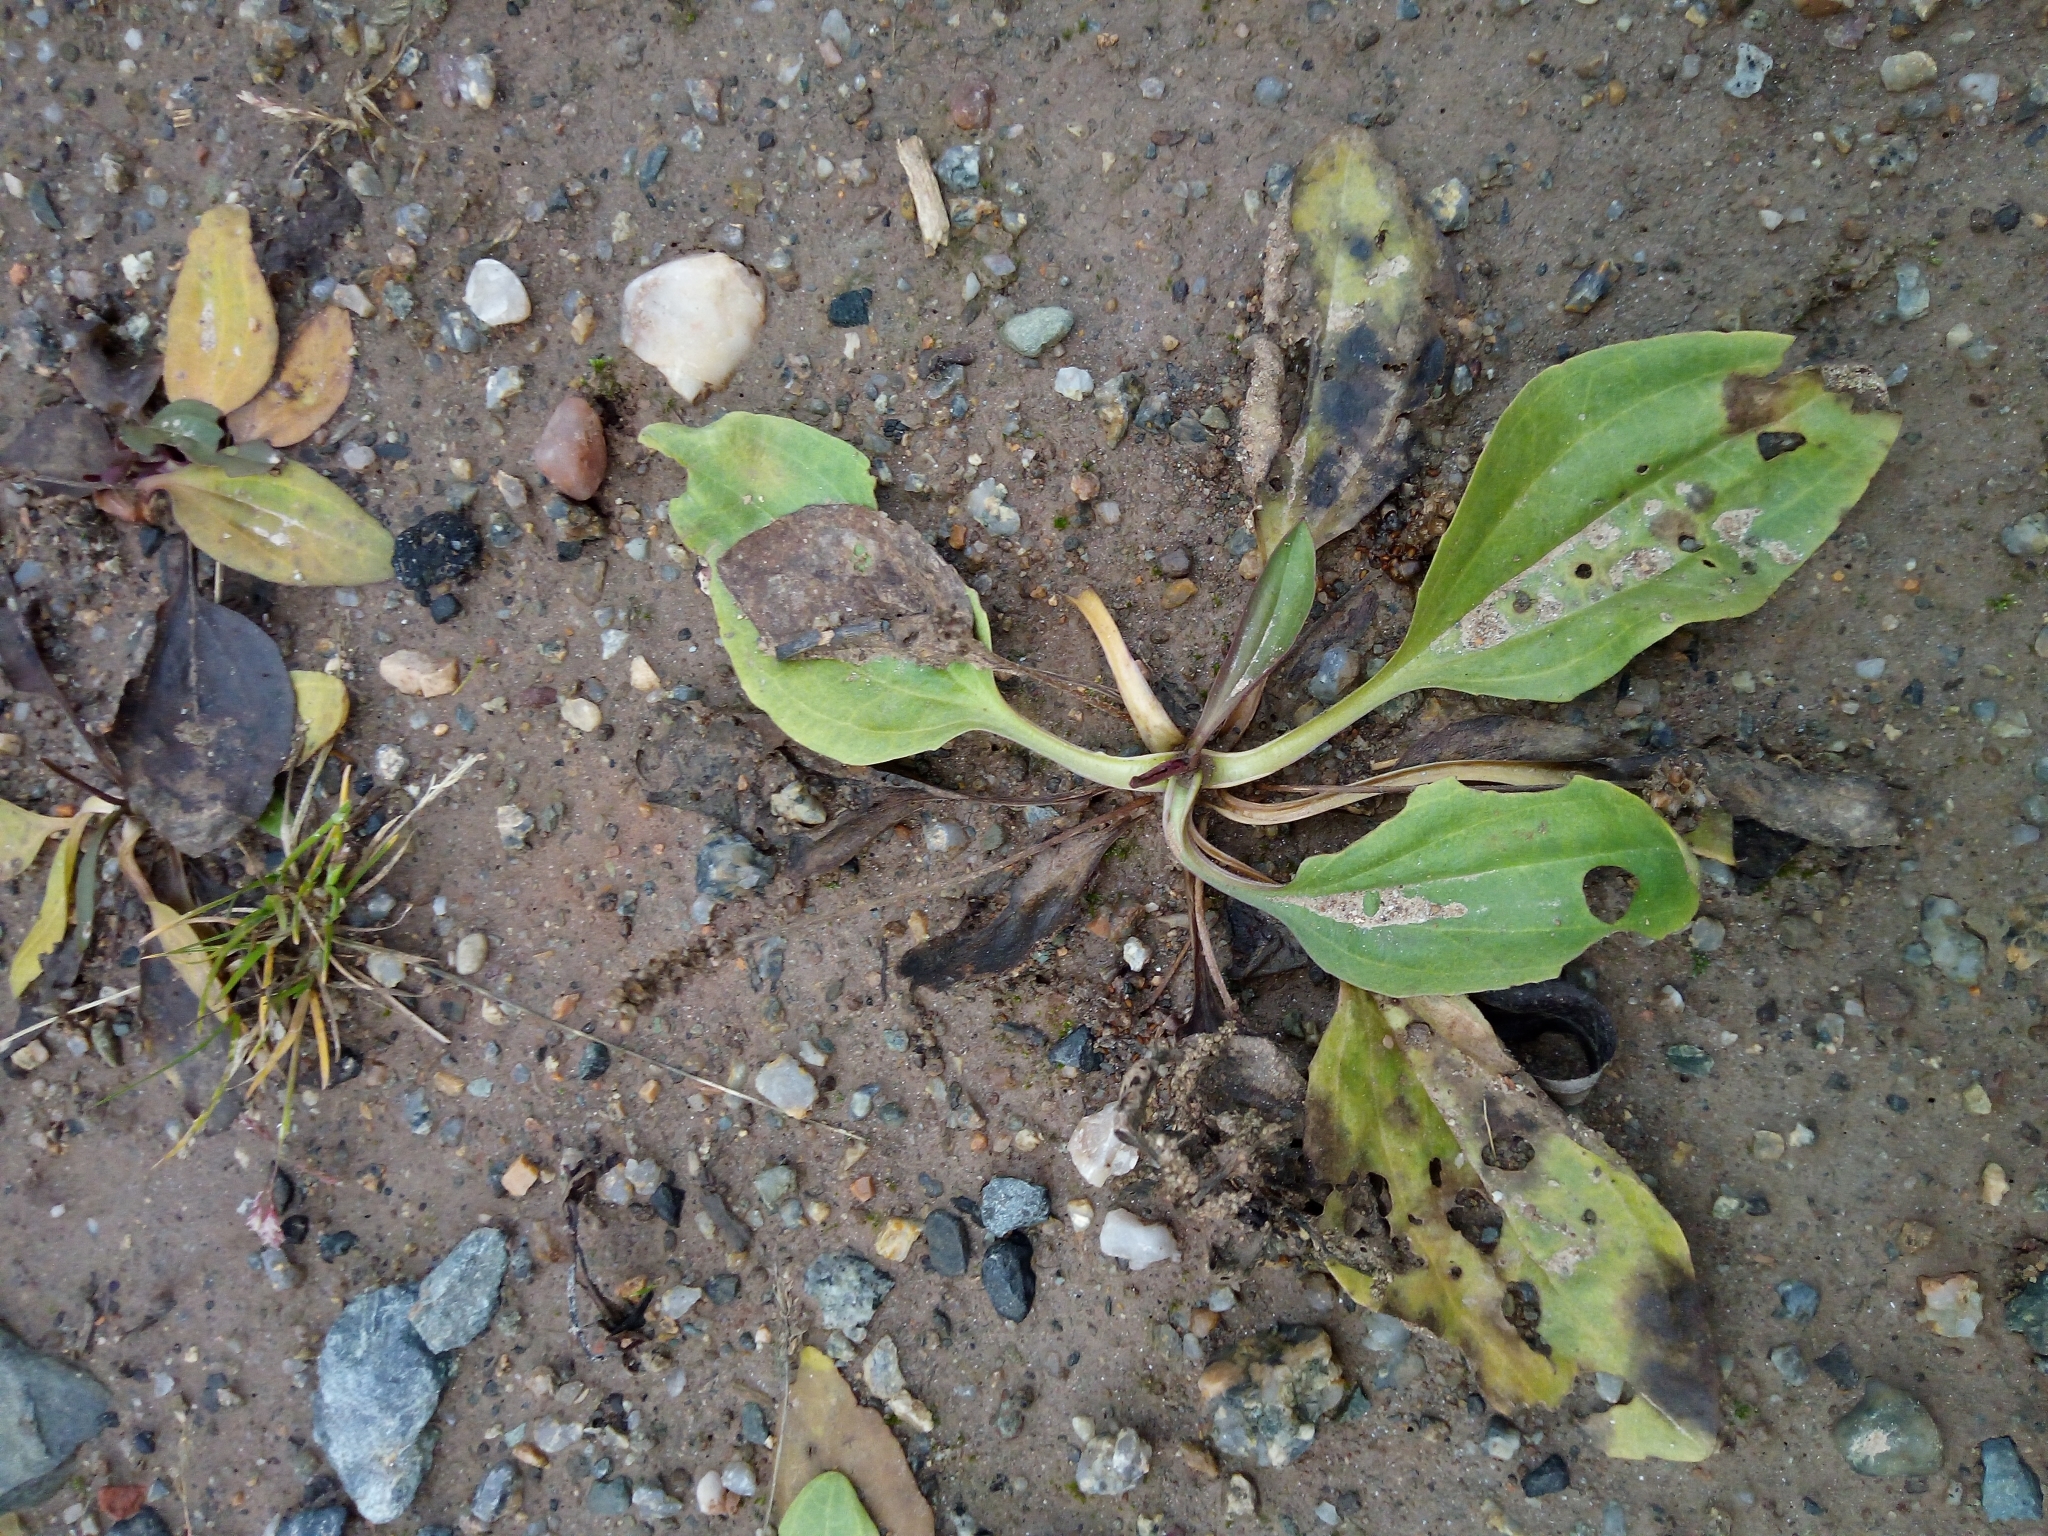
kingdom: Plantae
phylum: Tracheophyta
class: Magnoliopsida
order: Lamiales
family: Plantaginaceae
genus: Plantago
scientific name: Plantago major
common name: Common plantain
